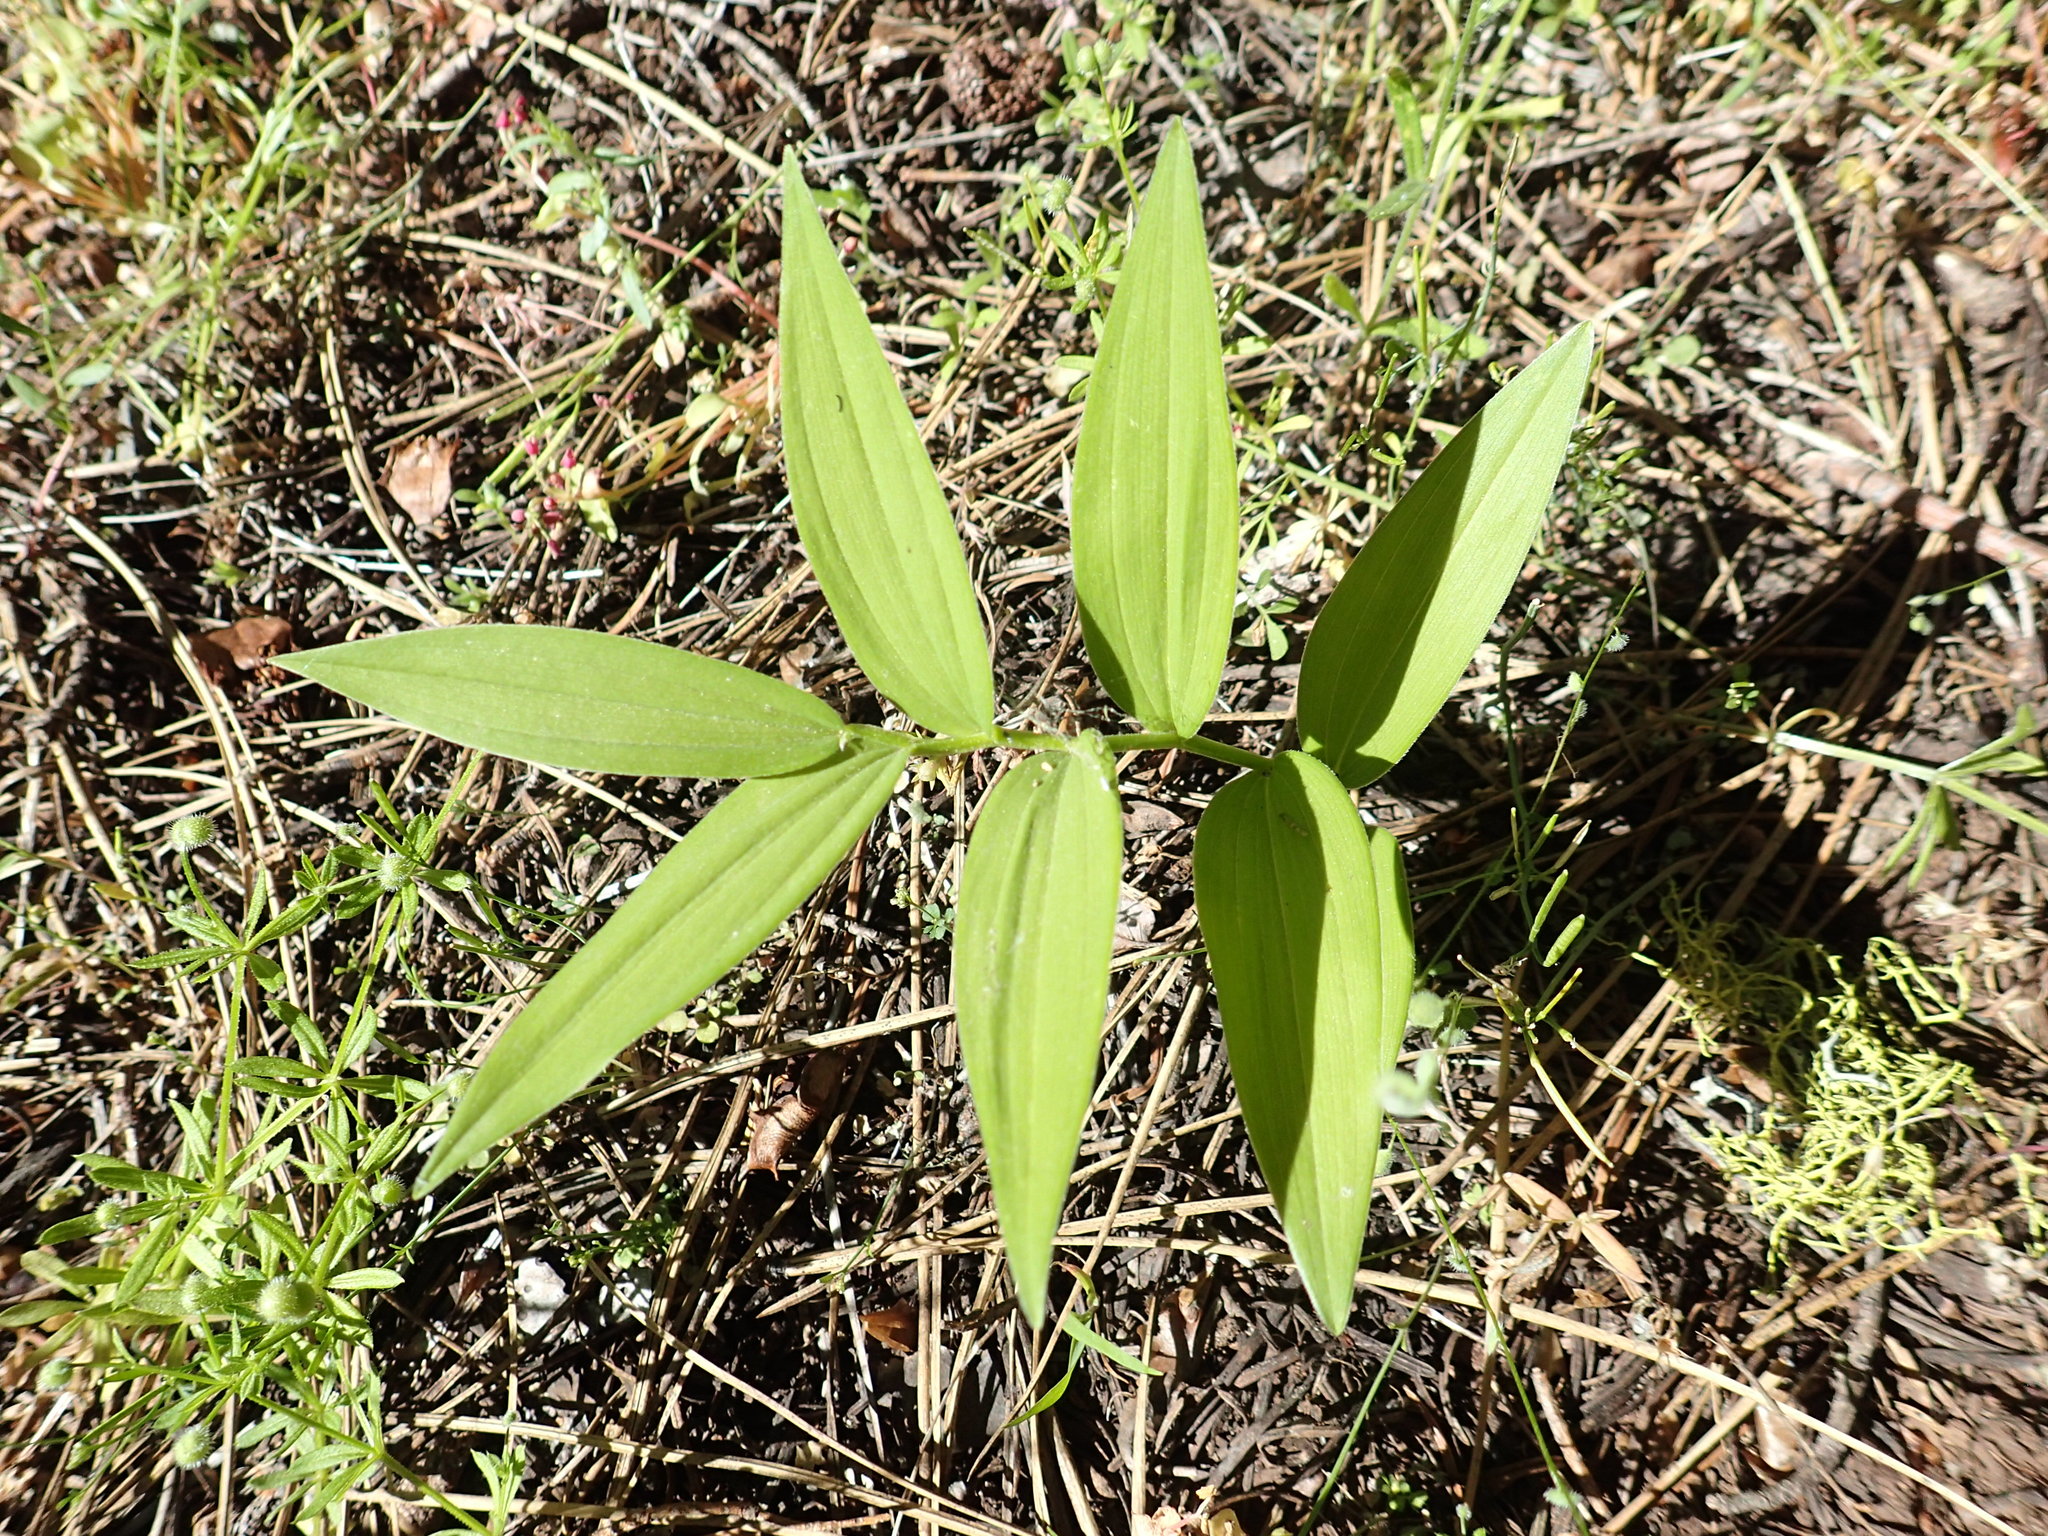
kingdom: Plantae
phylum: Tracheophyta
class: Liliopsida
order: Asparagales
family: Asparagaceae
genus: Maianthemum
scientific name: Maianthemum stellatum
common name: Little false solomon's seal
